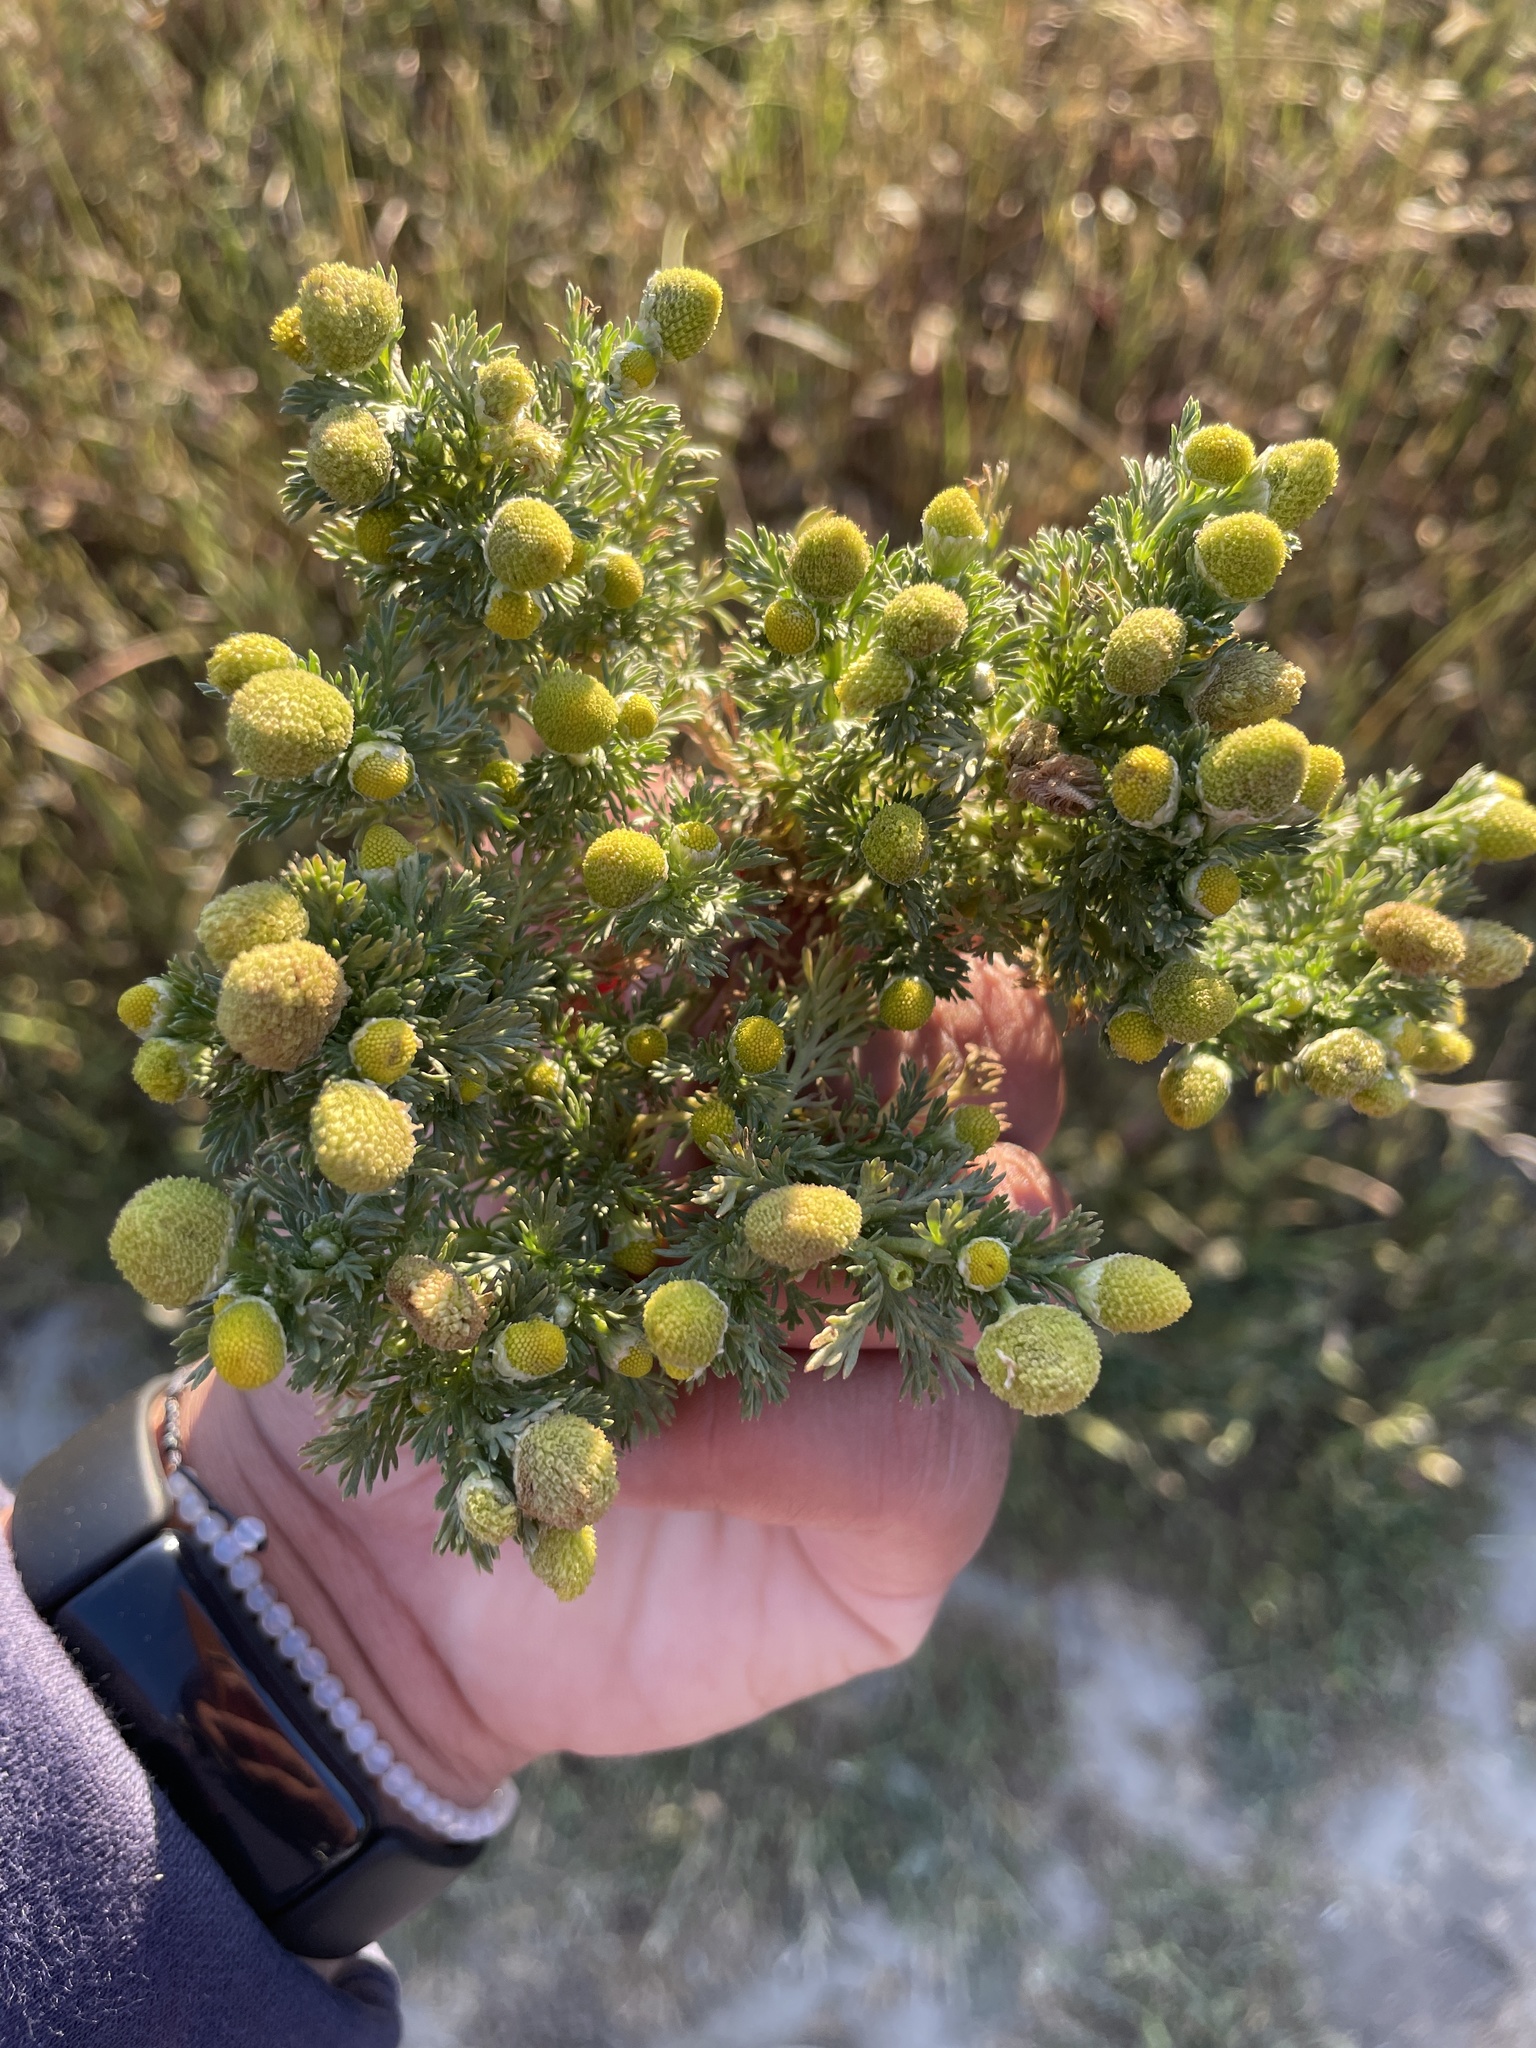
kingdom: Plantae
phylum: Tracheophyta
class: Magnoliopsida
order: Asterales
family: Asteraceae
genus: Matricaria
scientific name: Matricaria discoidea
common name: Disc mayweed
